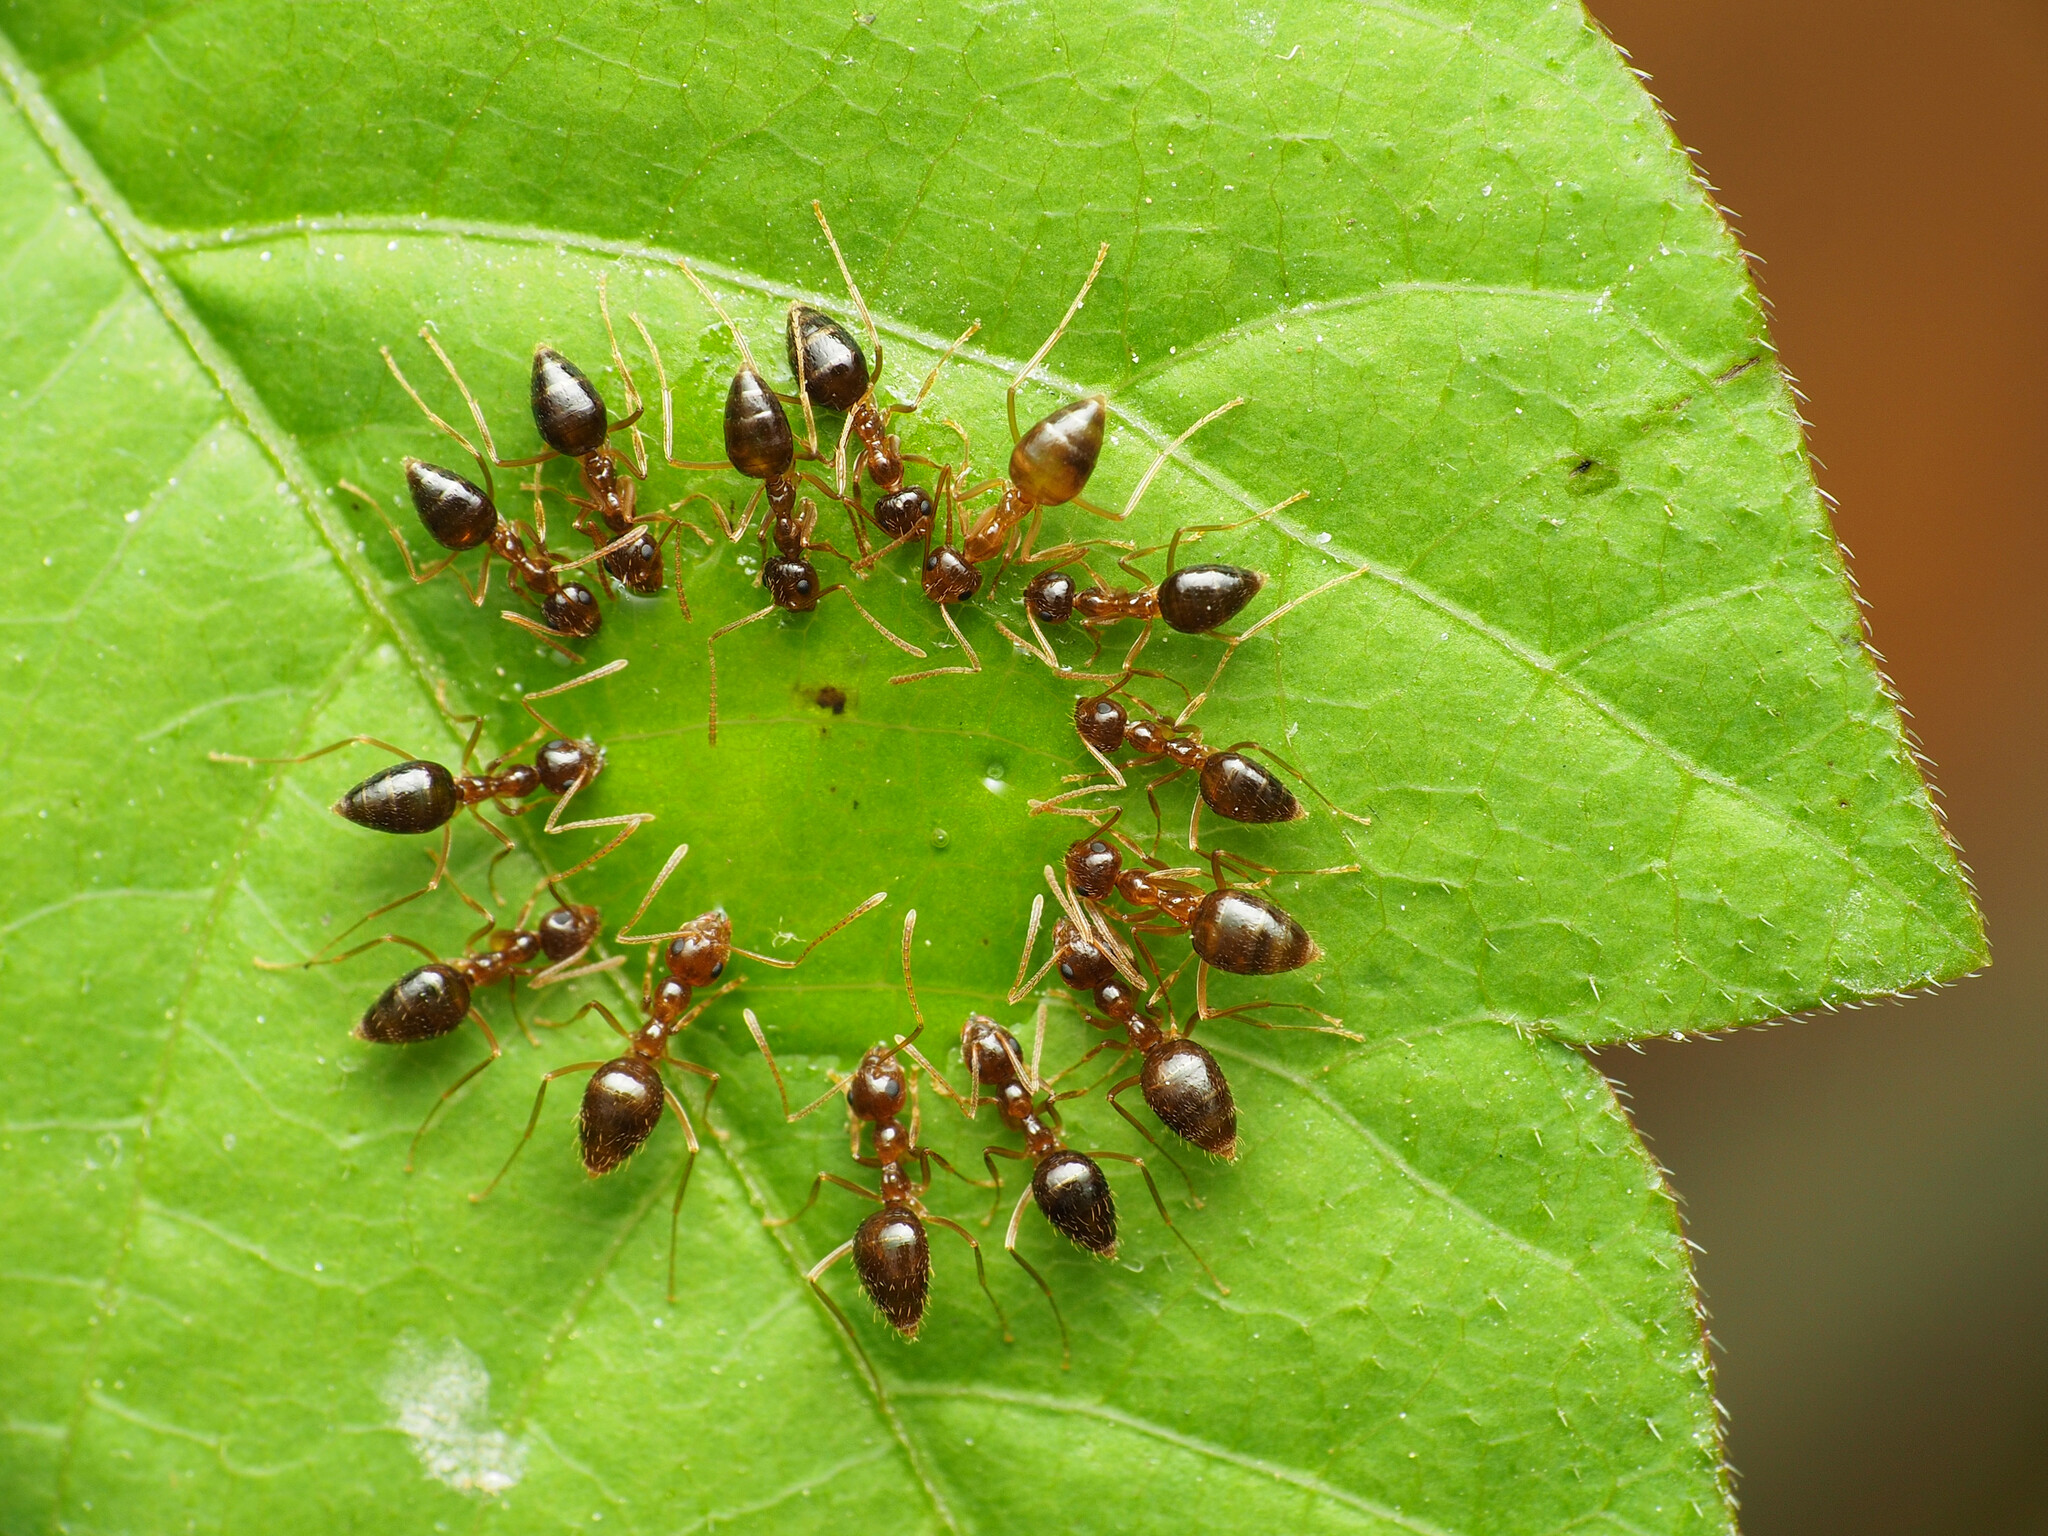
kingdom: Animalia
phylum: Arthropoda
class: Insecta
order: Hymenoptera
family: Formicidae
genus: Prenolepis
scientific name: Prenolepis imparis
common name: Small honey ant
